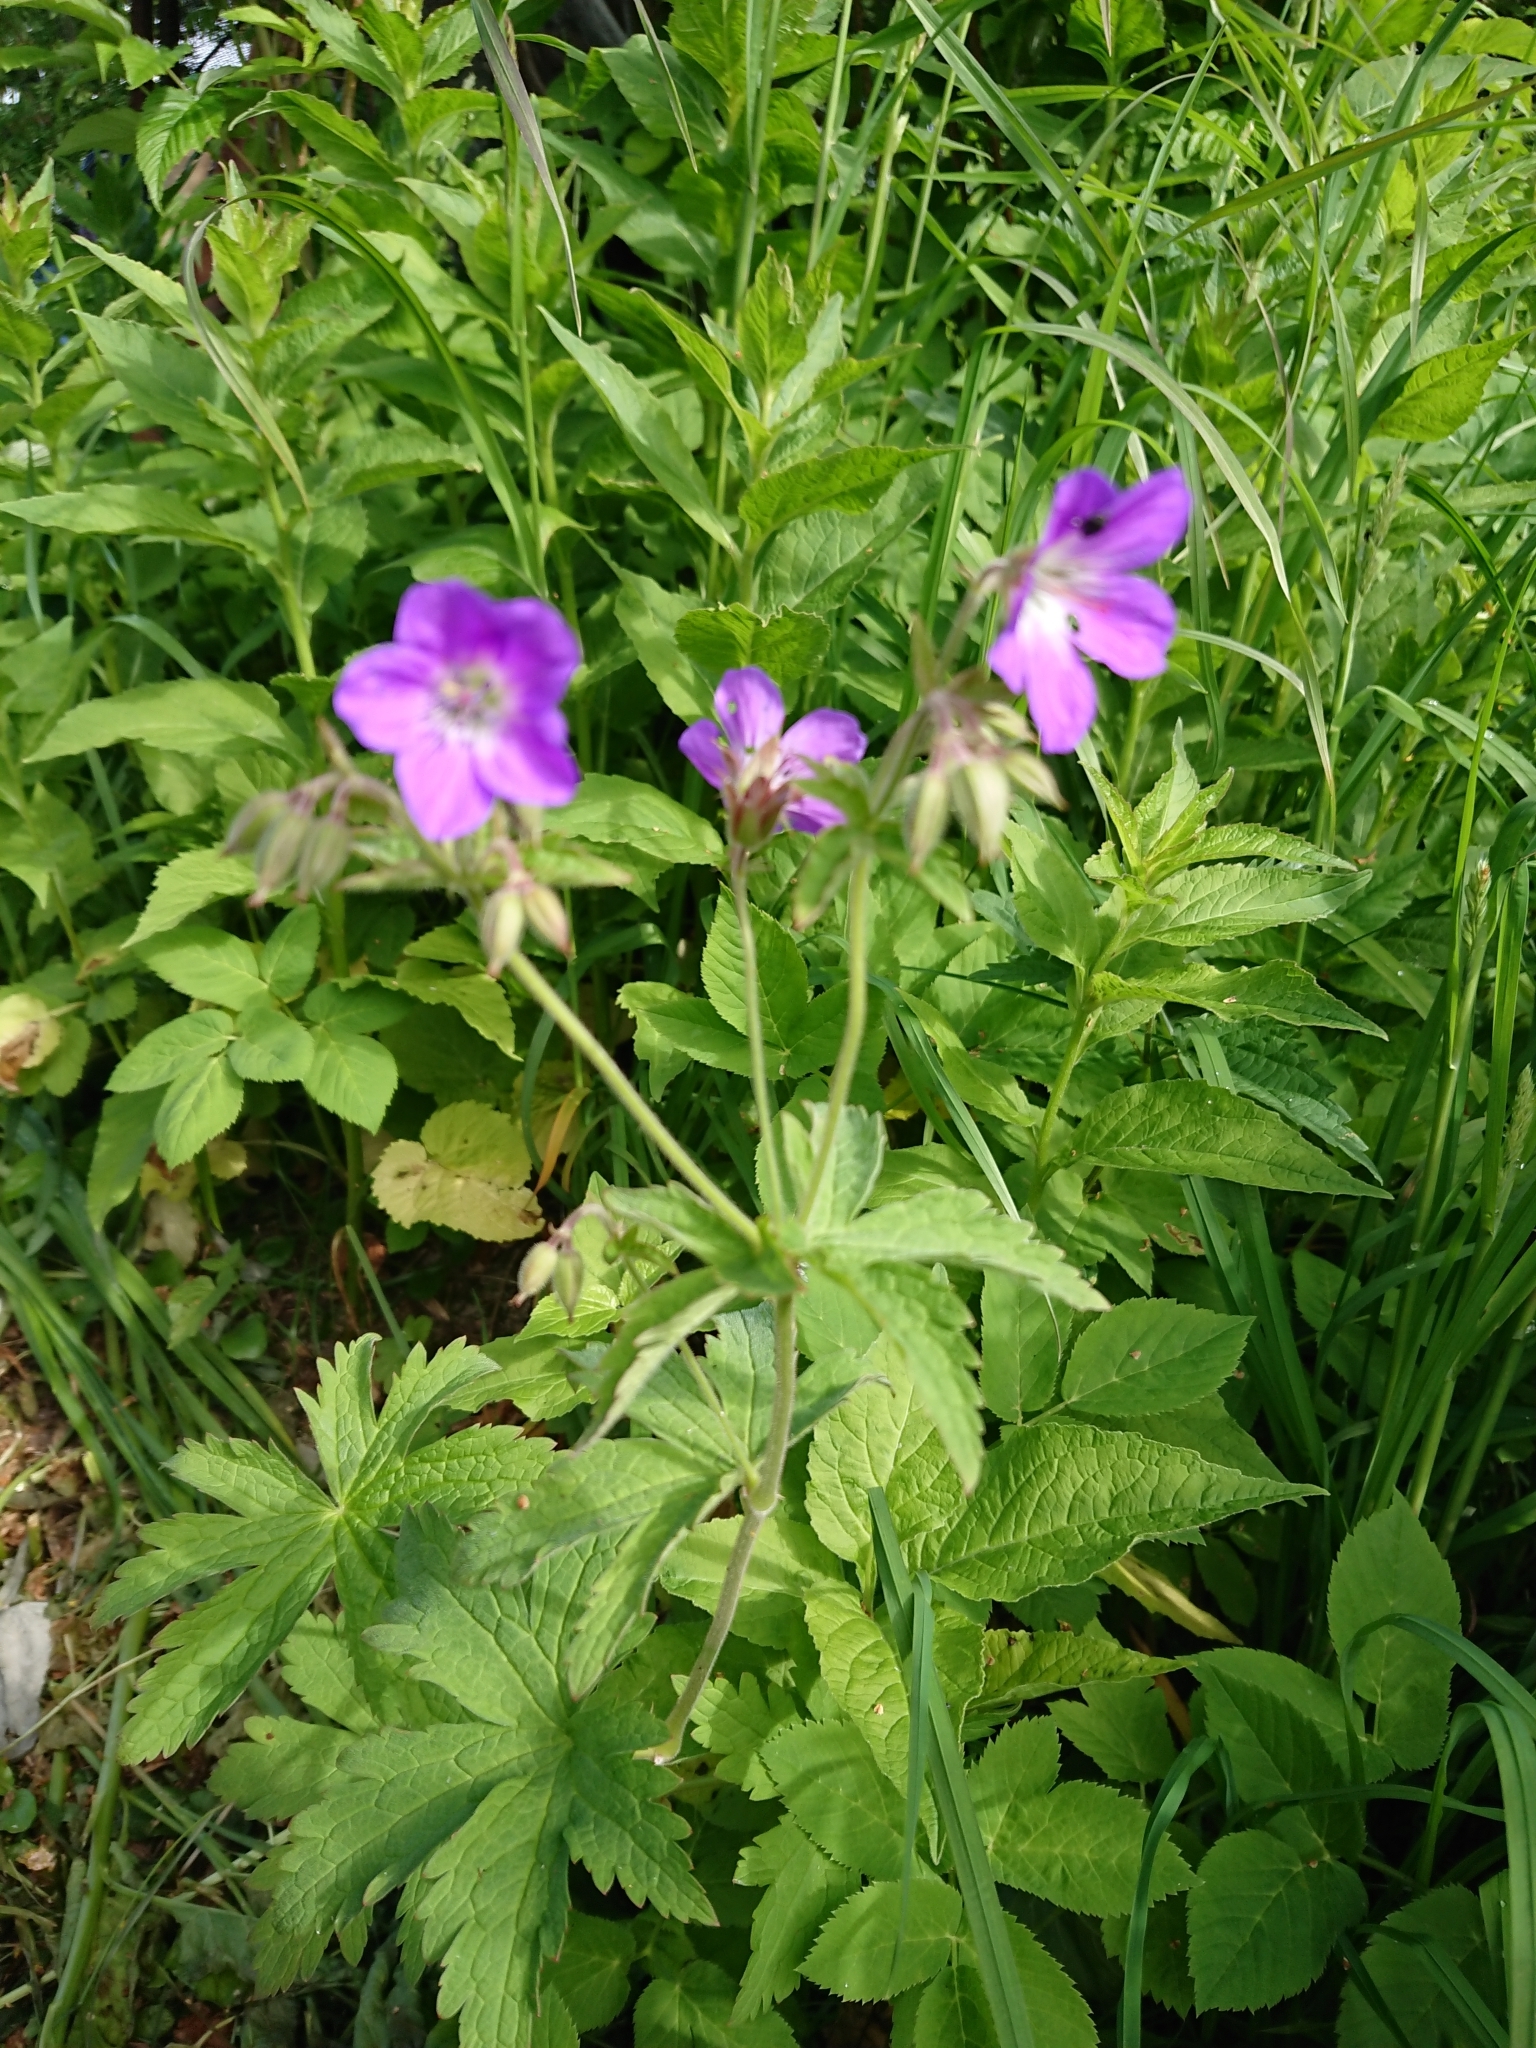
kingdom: Plantae
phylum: Tracheophyta
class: Magnoliopsida
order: Geraniales
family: Geraniaceae
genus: Geranium
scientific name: Geranium sylvaticum
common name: Wood crane's-bill
